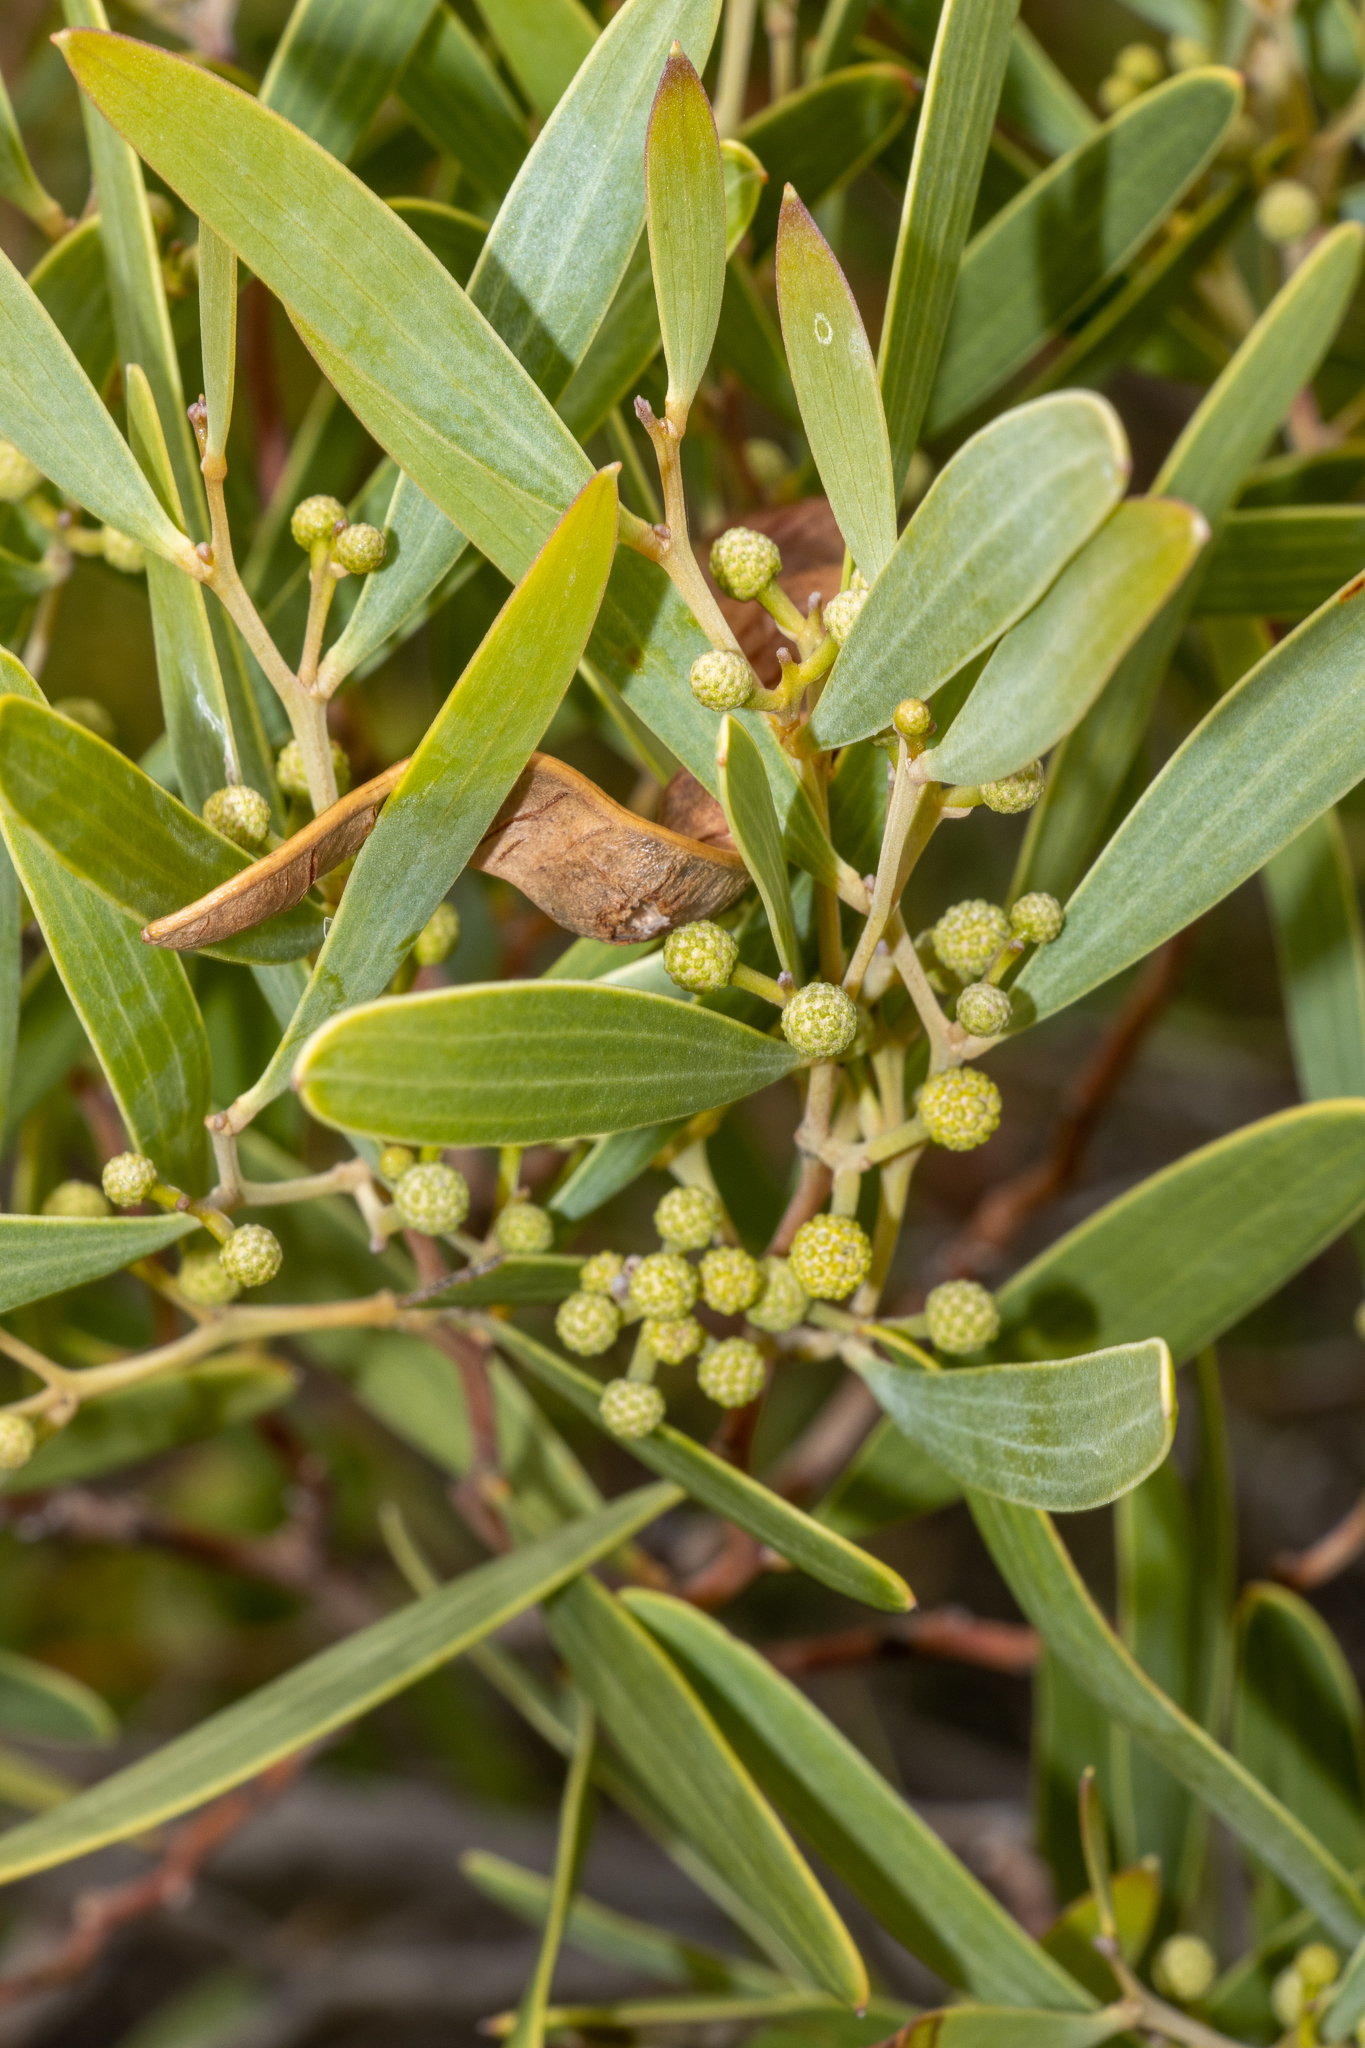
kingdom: Plantae
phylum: Tracheophyta
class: Magnoliopsida
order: Fabales
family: Fabaceae
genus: Acacia
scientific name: Acacia cyclops
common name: Coastal wattle
